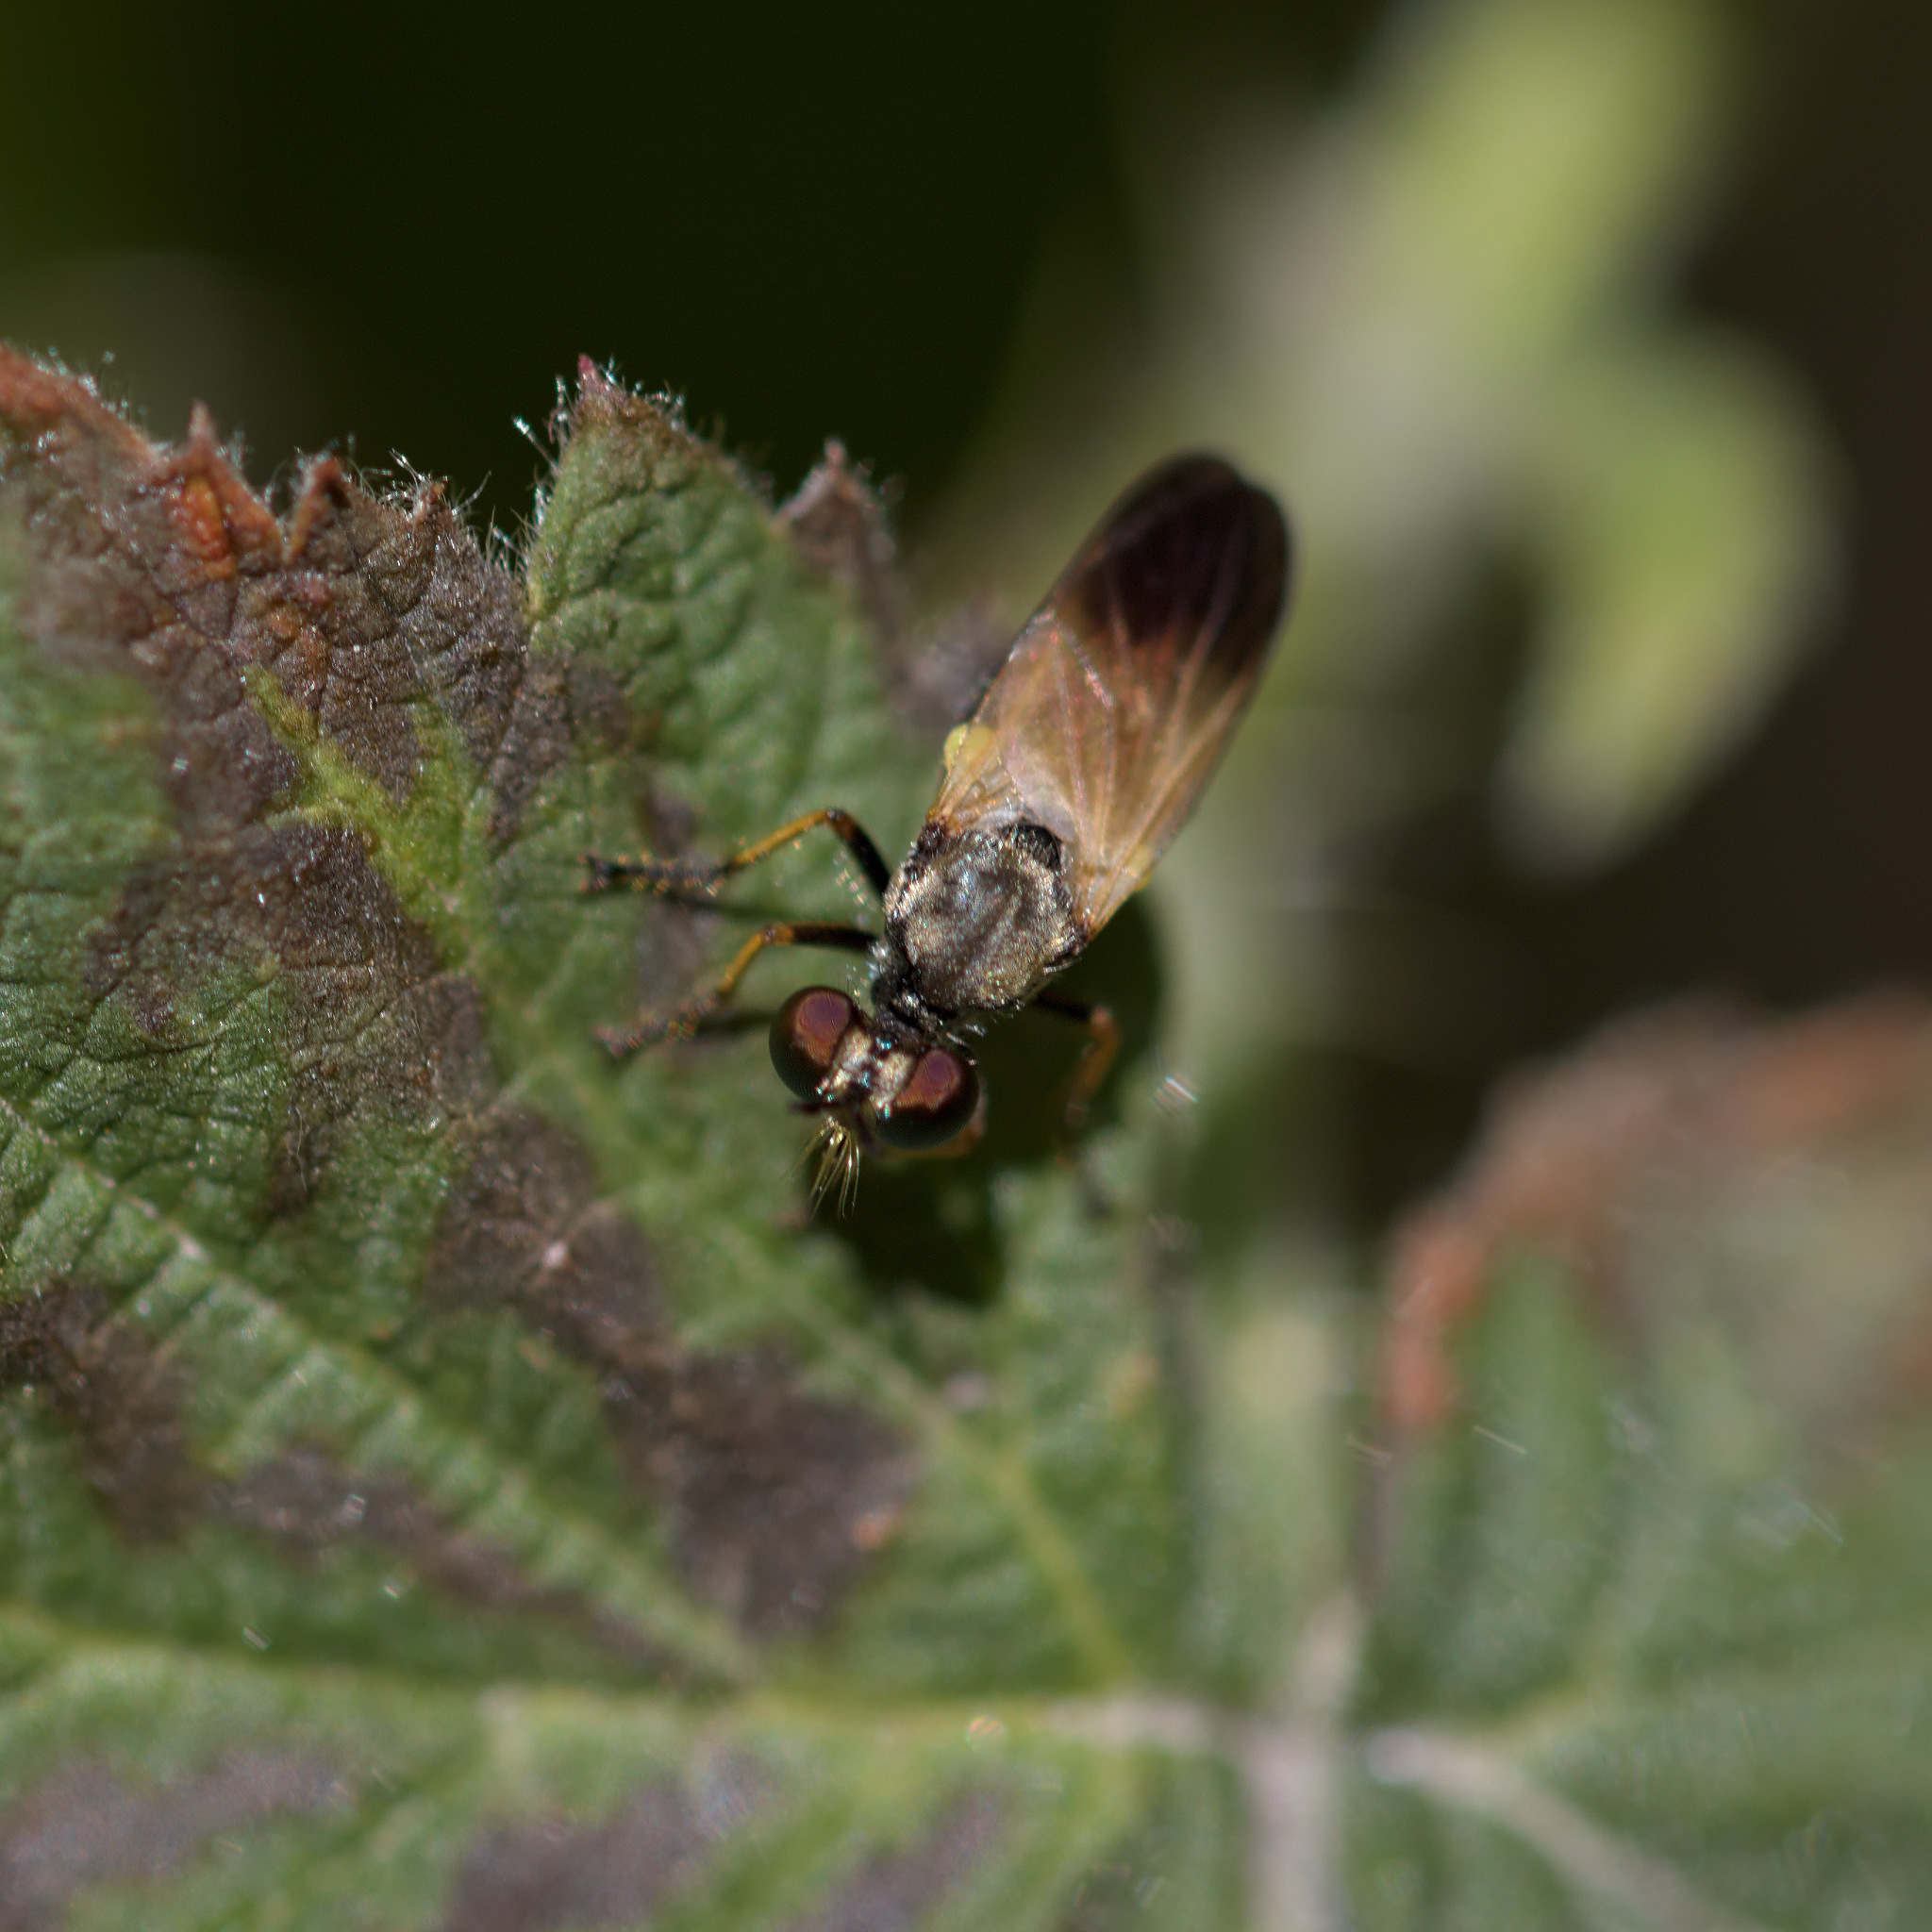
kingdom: Animalia
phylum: Arthropoda
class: Insecta
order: Diptera
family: Asilidae
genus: Eudioctria
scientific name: Eudioctria sackeni
